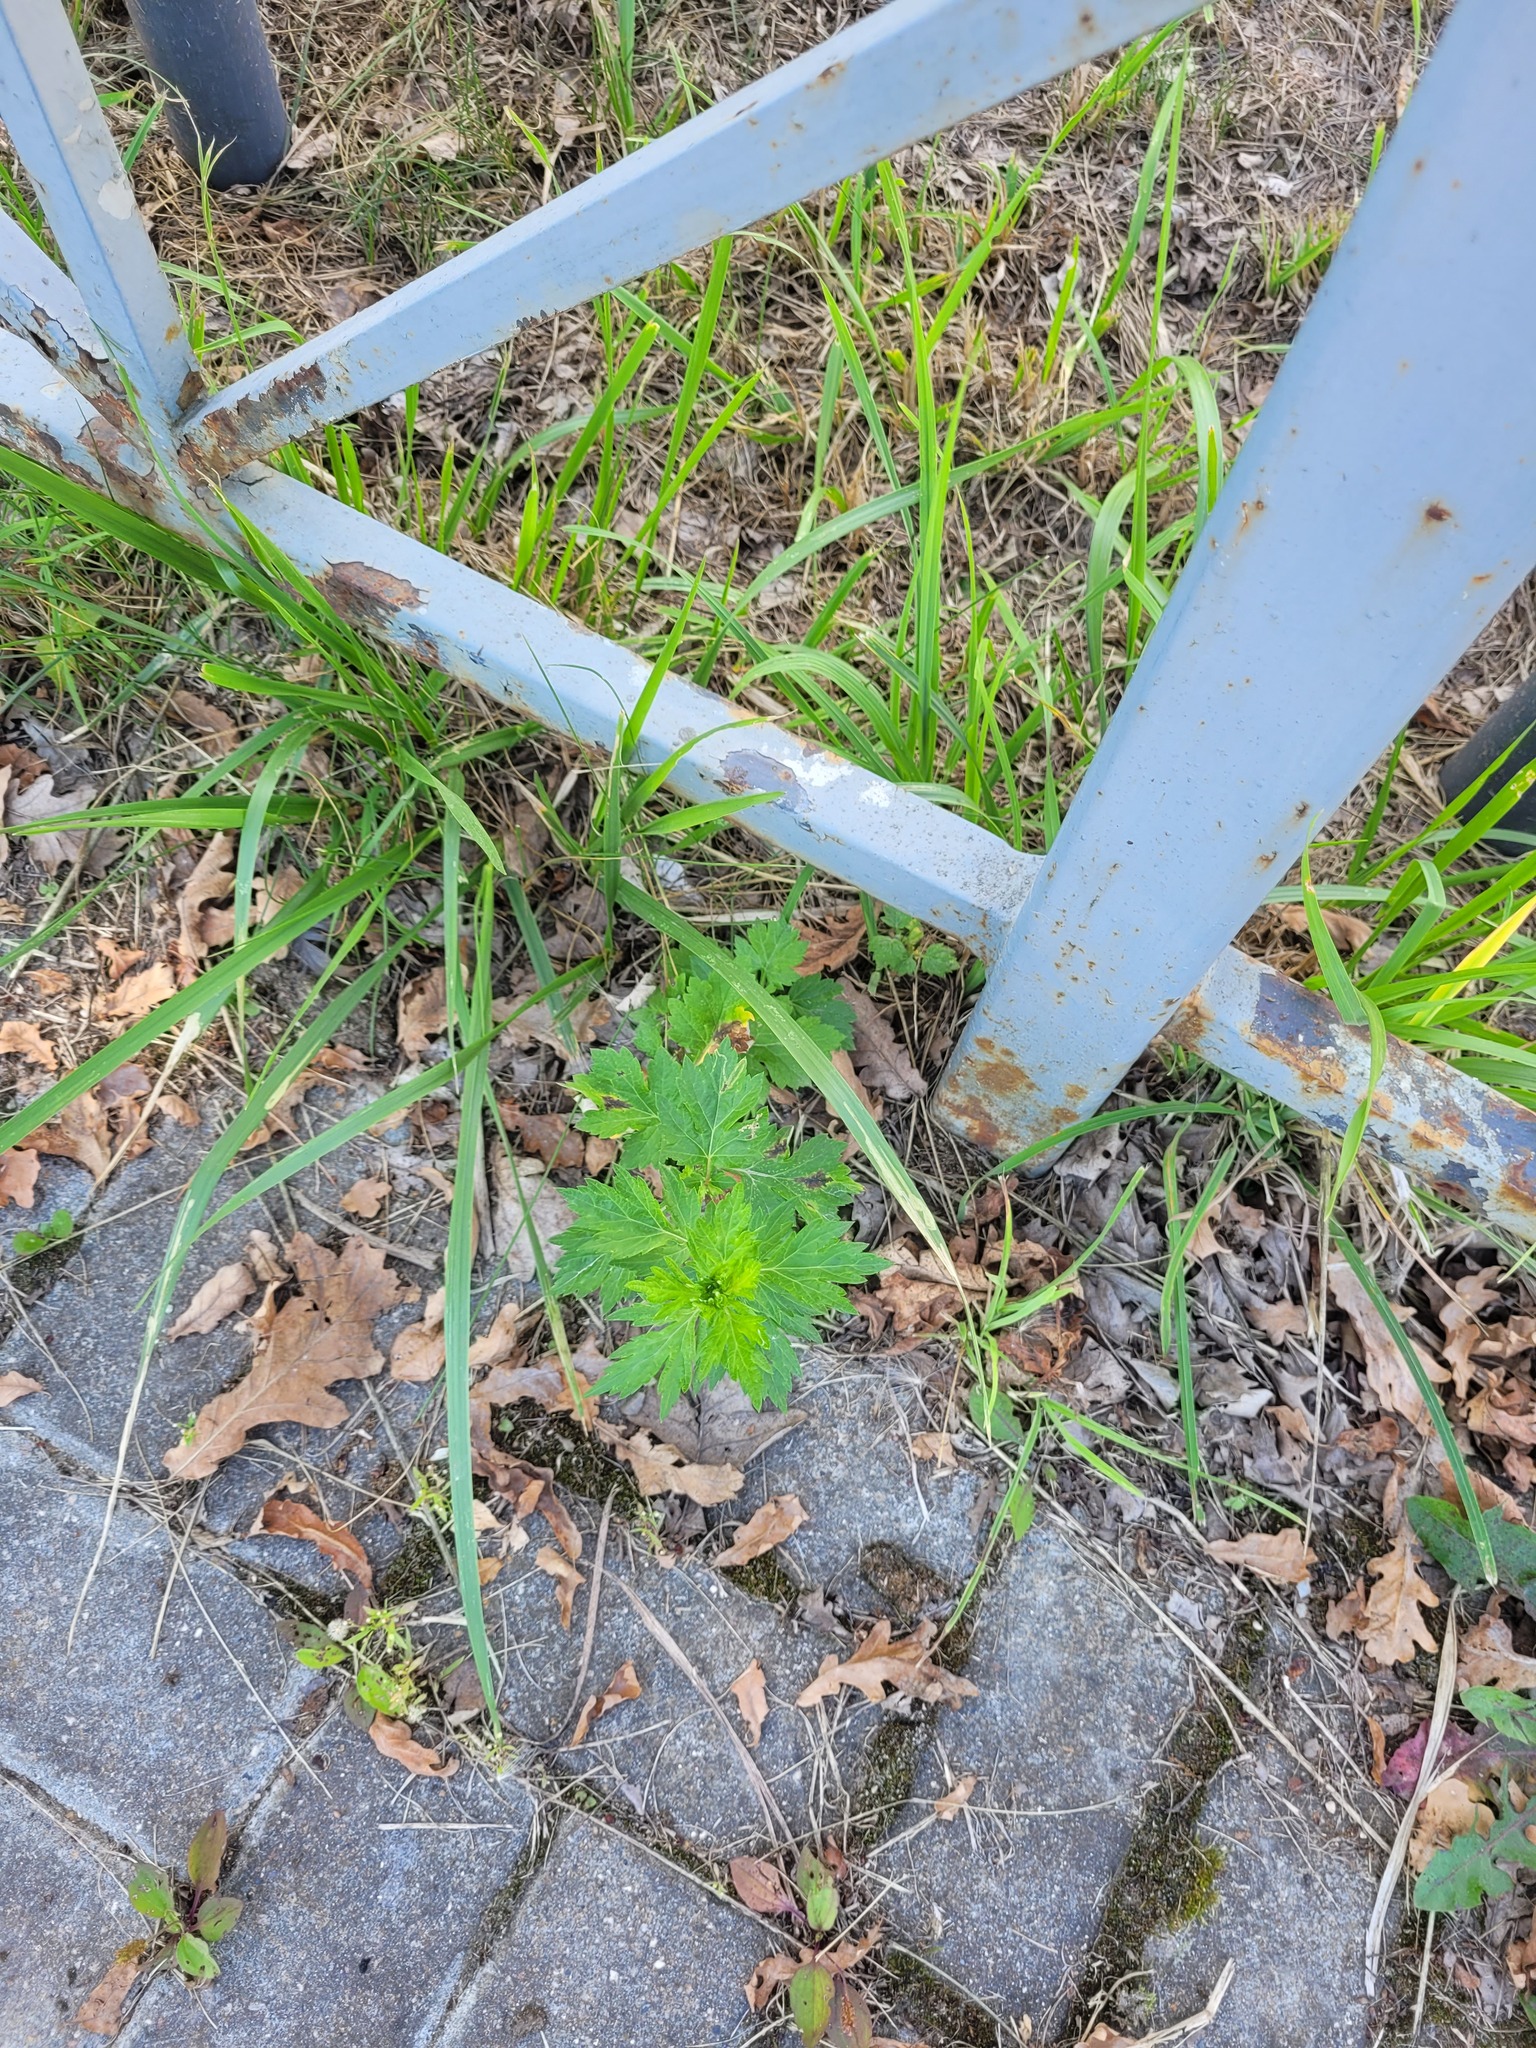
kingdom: Plantae
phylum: Tracheophyta
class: Magnoliopsida
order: Asterales
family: Asteraceae
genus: Artemisia
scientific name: Artemisia vulgaris
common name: Mugwort
